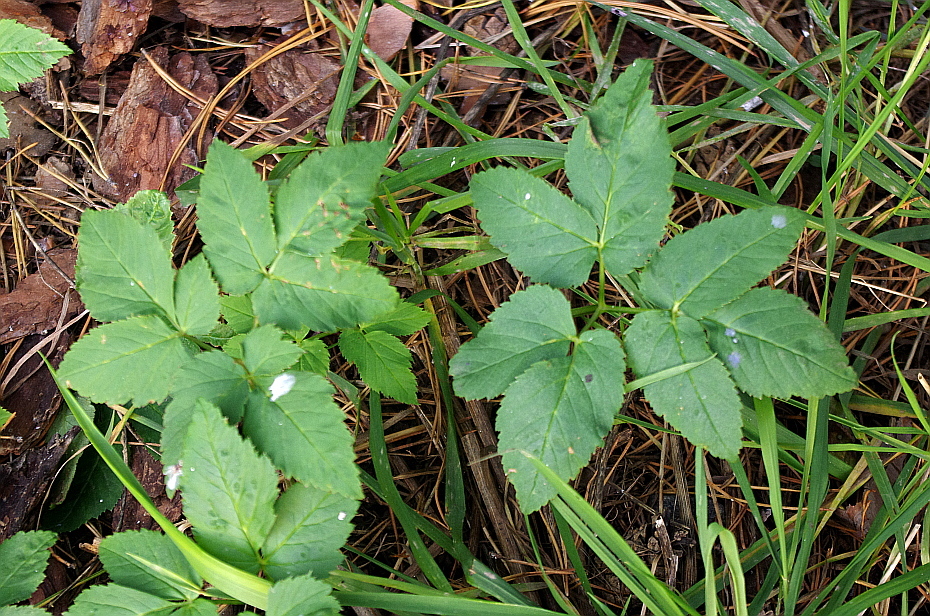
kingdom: Plantae
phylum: Tracheophyta
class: Magnoliopsida
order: Apiales
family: Apiaceae
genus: Aegopodium
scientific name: Aegopodium podagraria
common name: Ground-elder
